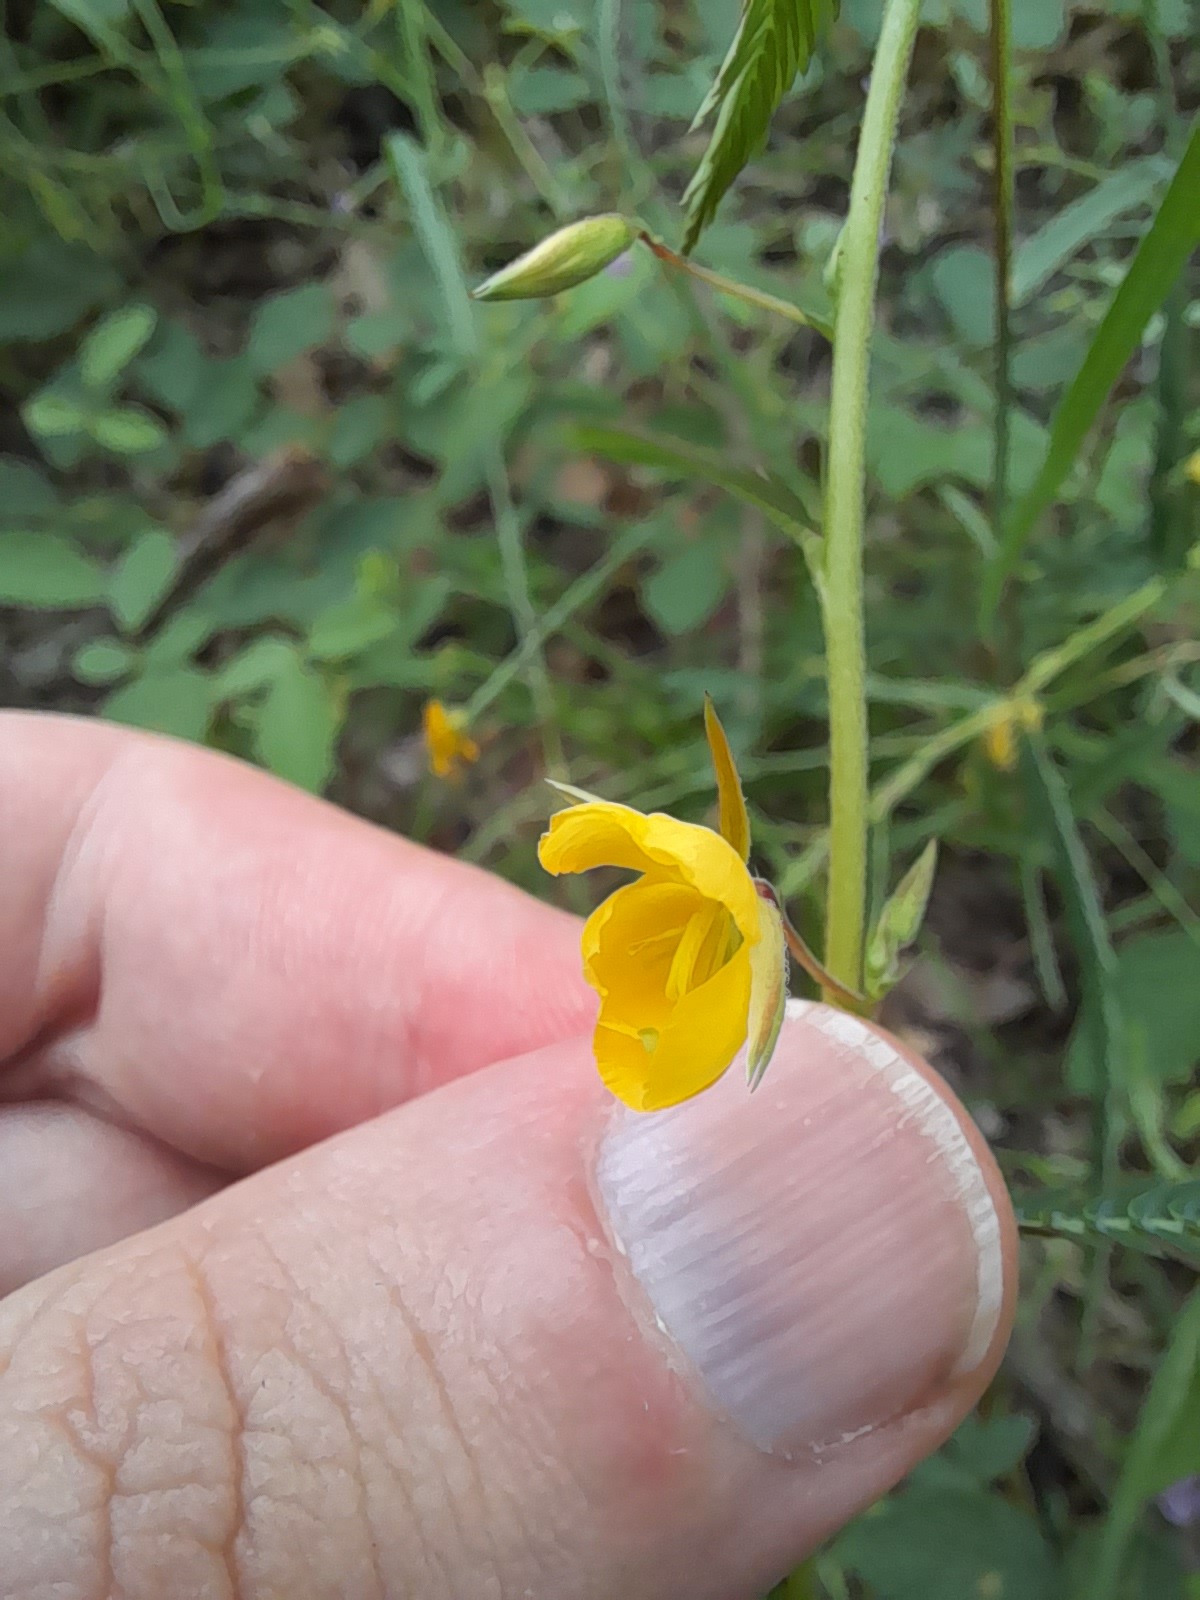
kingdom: Plantae
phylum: Tracheophyta
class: Magnoliopsida
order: Fabales
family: Fabaceae
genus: Chamaecrista
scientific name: Chamaecrista nomame
